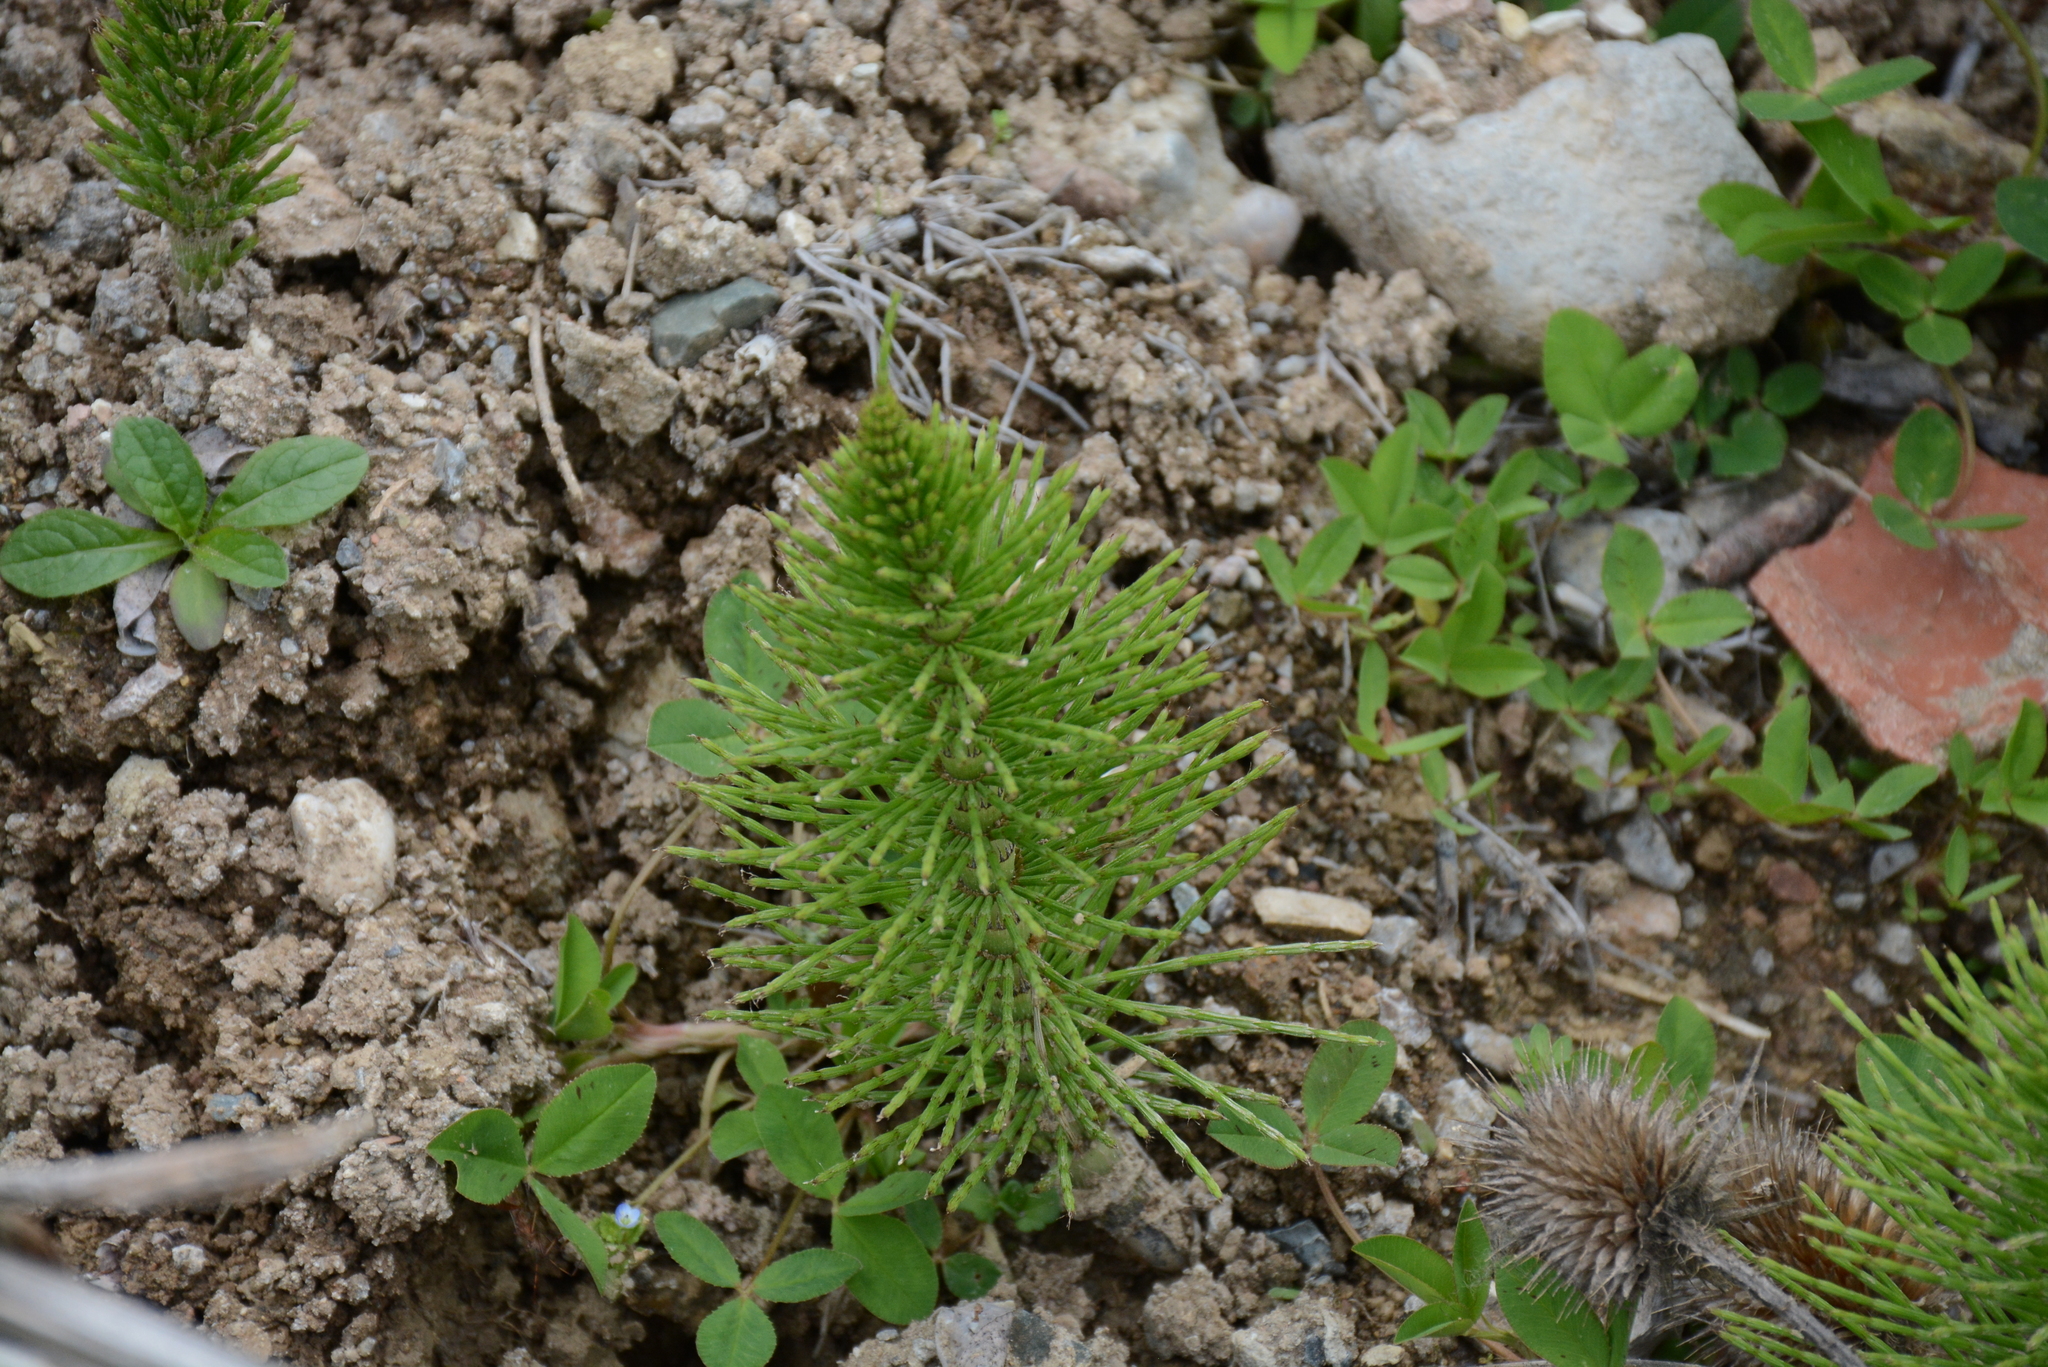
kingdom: Plantae
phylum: Tracheophyta
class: Polypodiopsida
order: Equisetales
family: Equisetaceae
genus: Equisetum
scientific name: Equisetum telmateia
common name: Great horsetail
